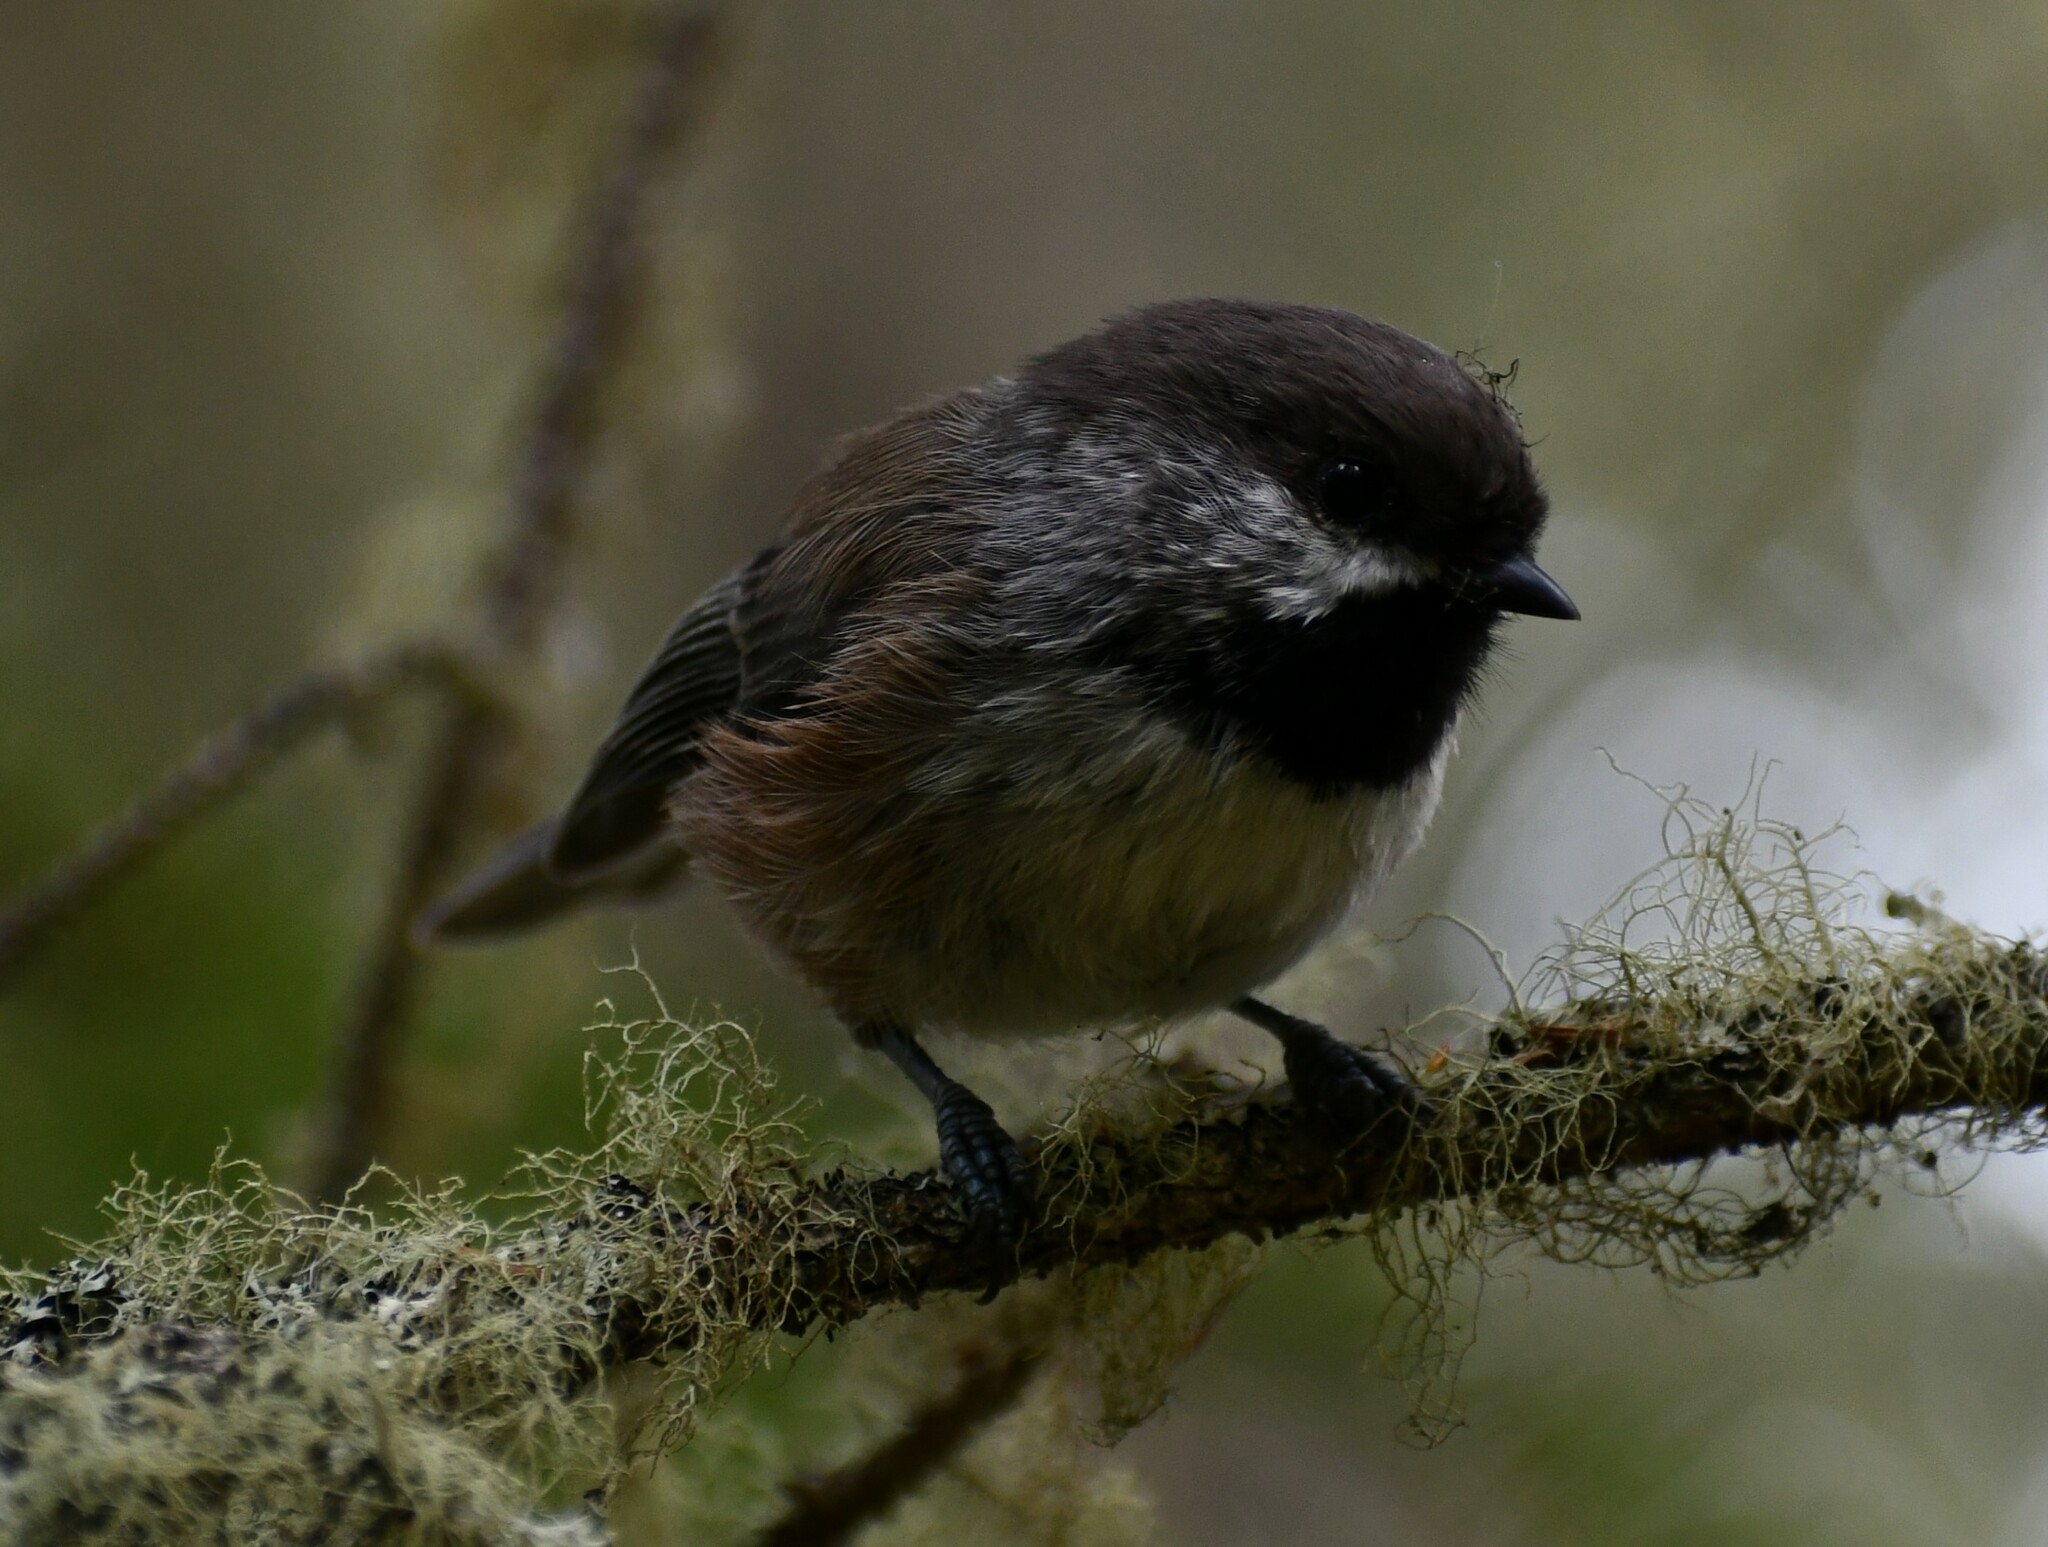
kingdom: Animalia
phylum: Chordata
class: Aves
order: Passeriformes
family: Paridae
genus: Poecile
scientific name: Poecile hudsonicus
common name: Boreal chickadee
